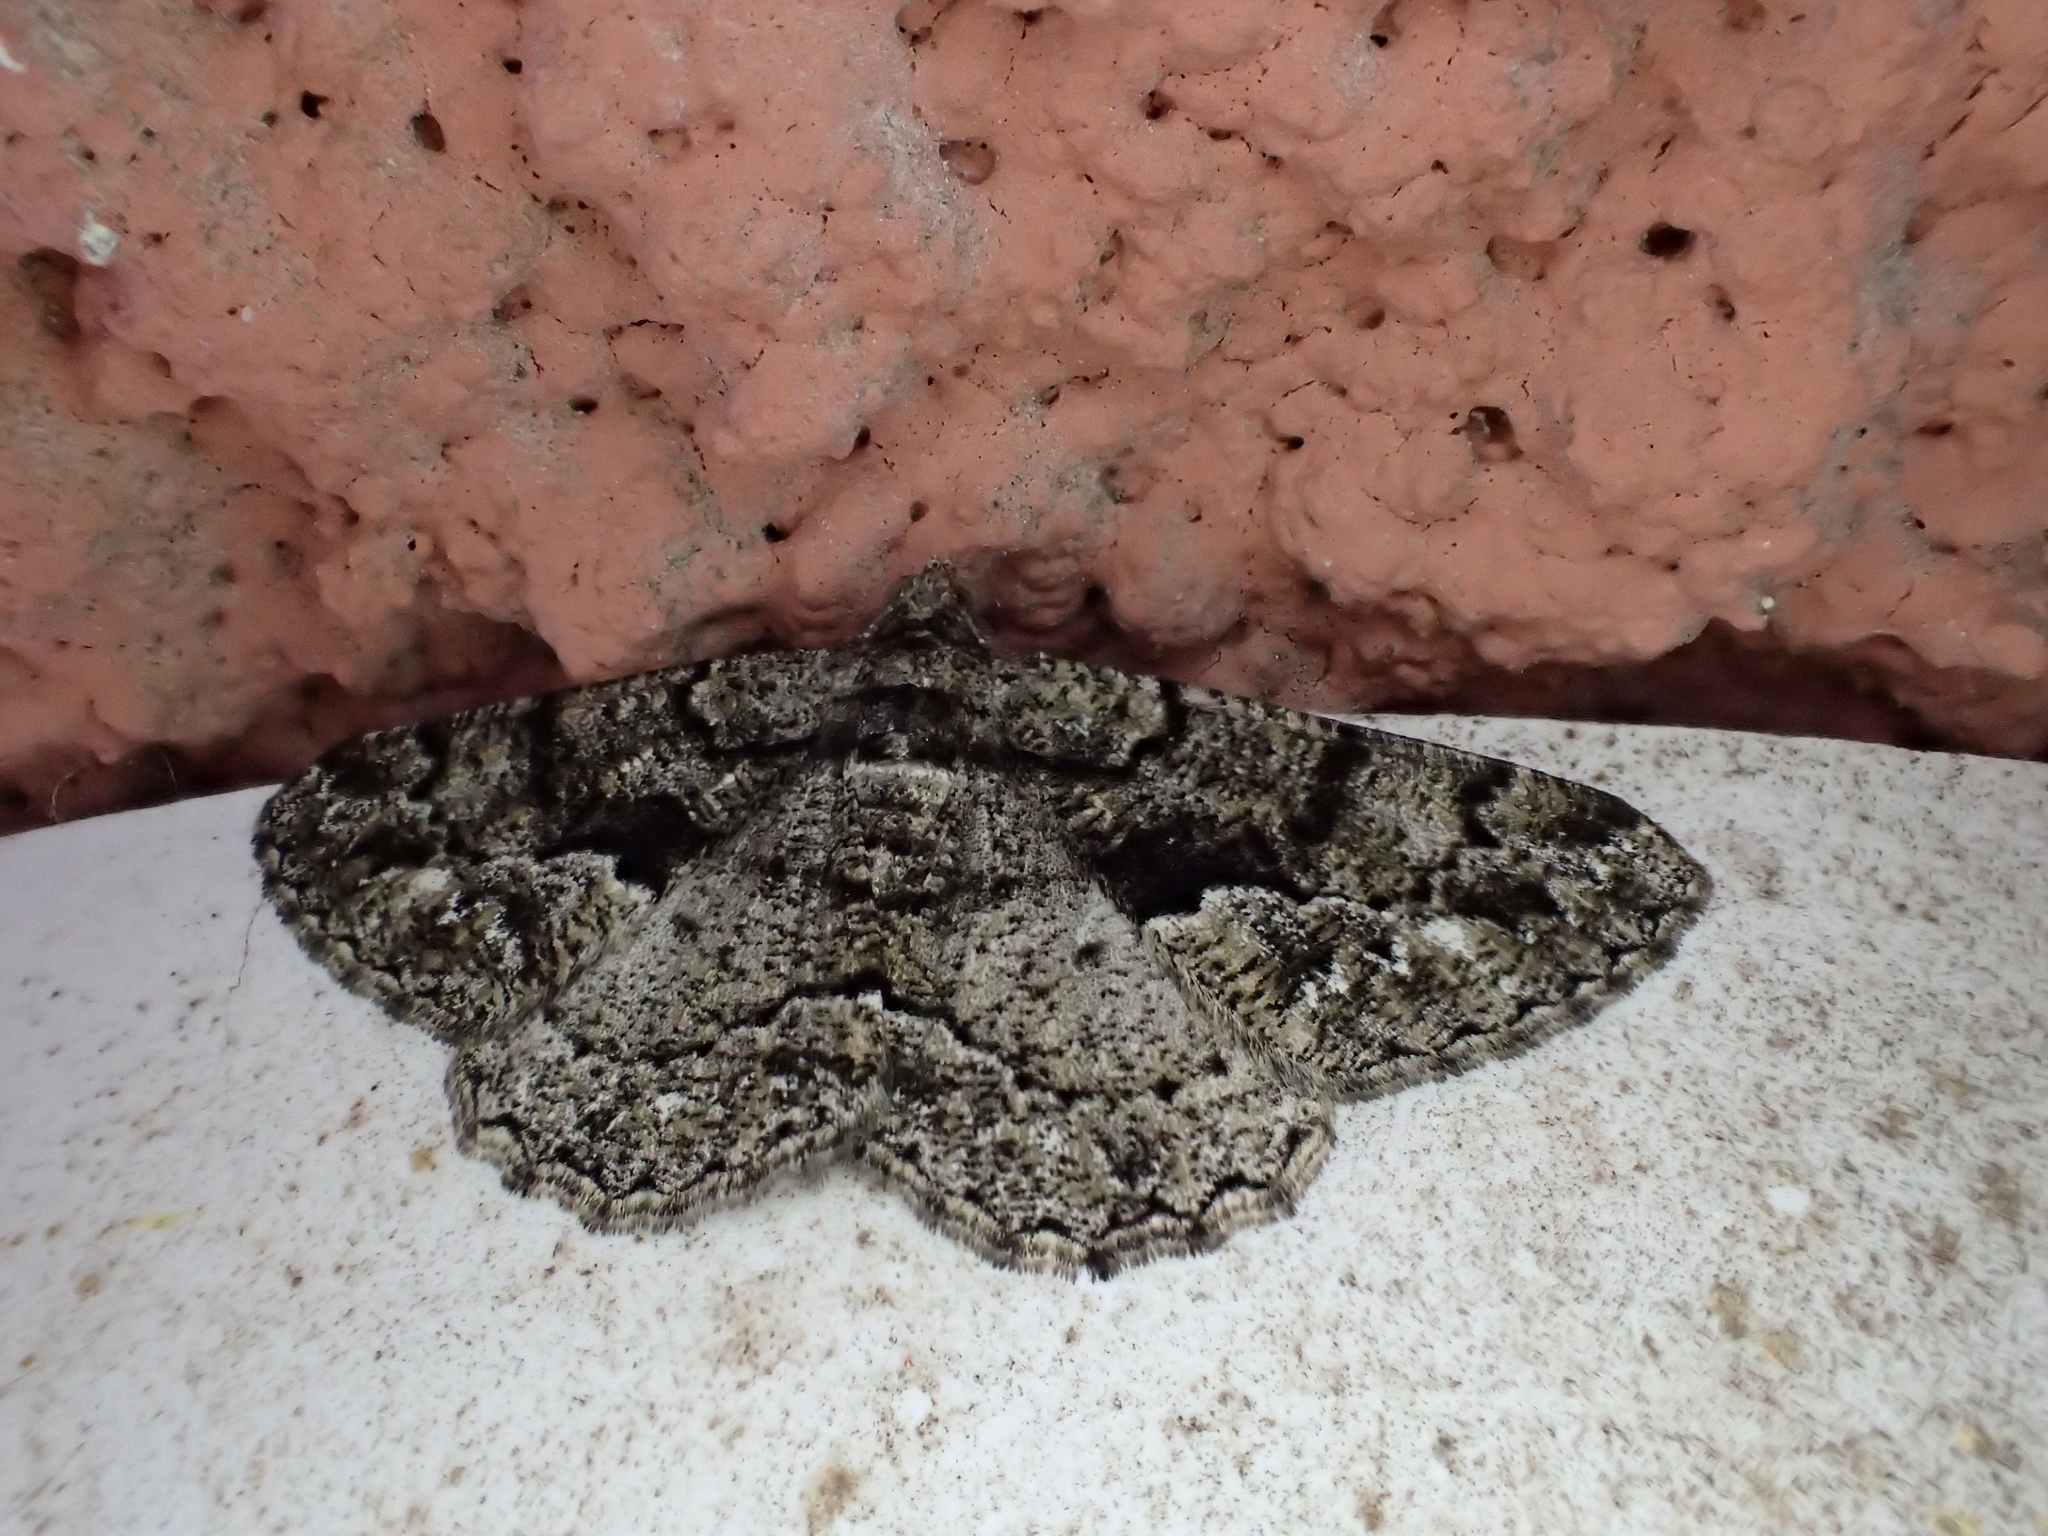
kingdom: Animalia
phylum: Arthropoda
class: Insecta
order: Lepidoptera
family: Geometridae
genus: Peribatodes
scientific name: Peribatodes ilicaria
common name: Lydd beauty
